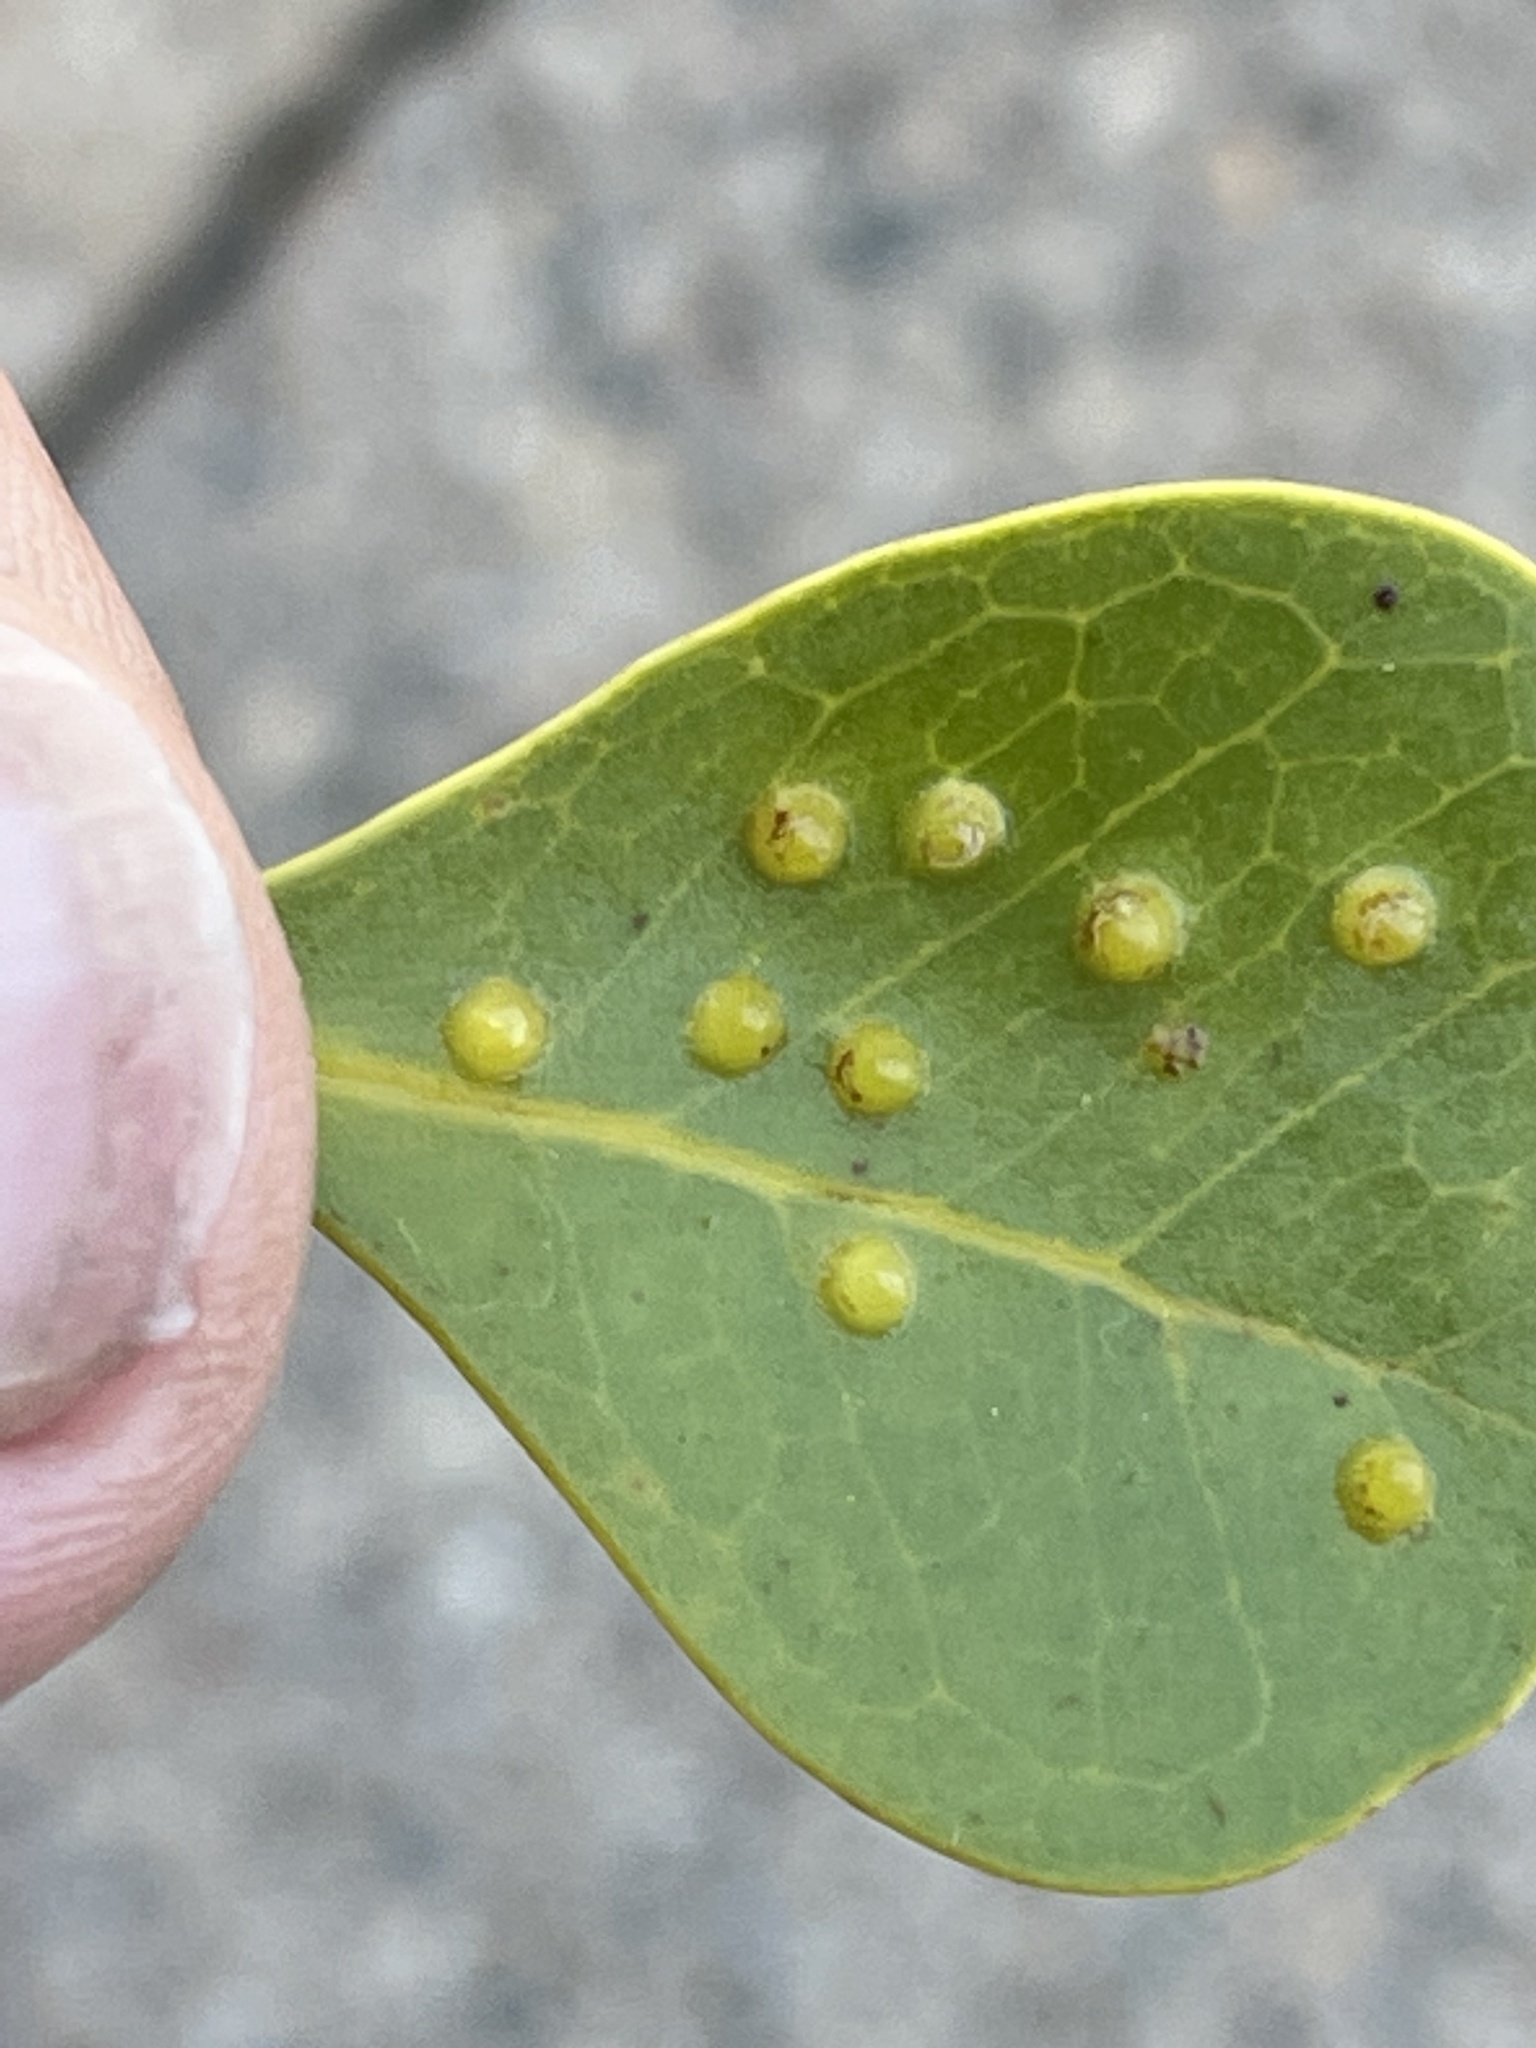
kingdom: Plantae
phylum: Tracheophyta
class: Magnoliopsida
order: Lamiales
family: Acanthaceae
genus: Avicennia
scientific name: Avicennia marina
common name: Gray mangrove
